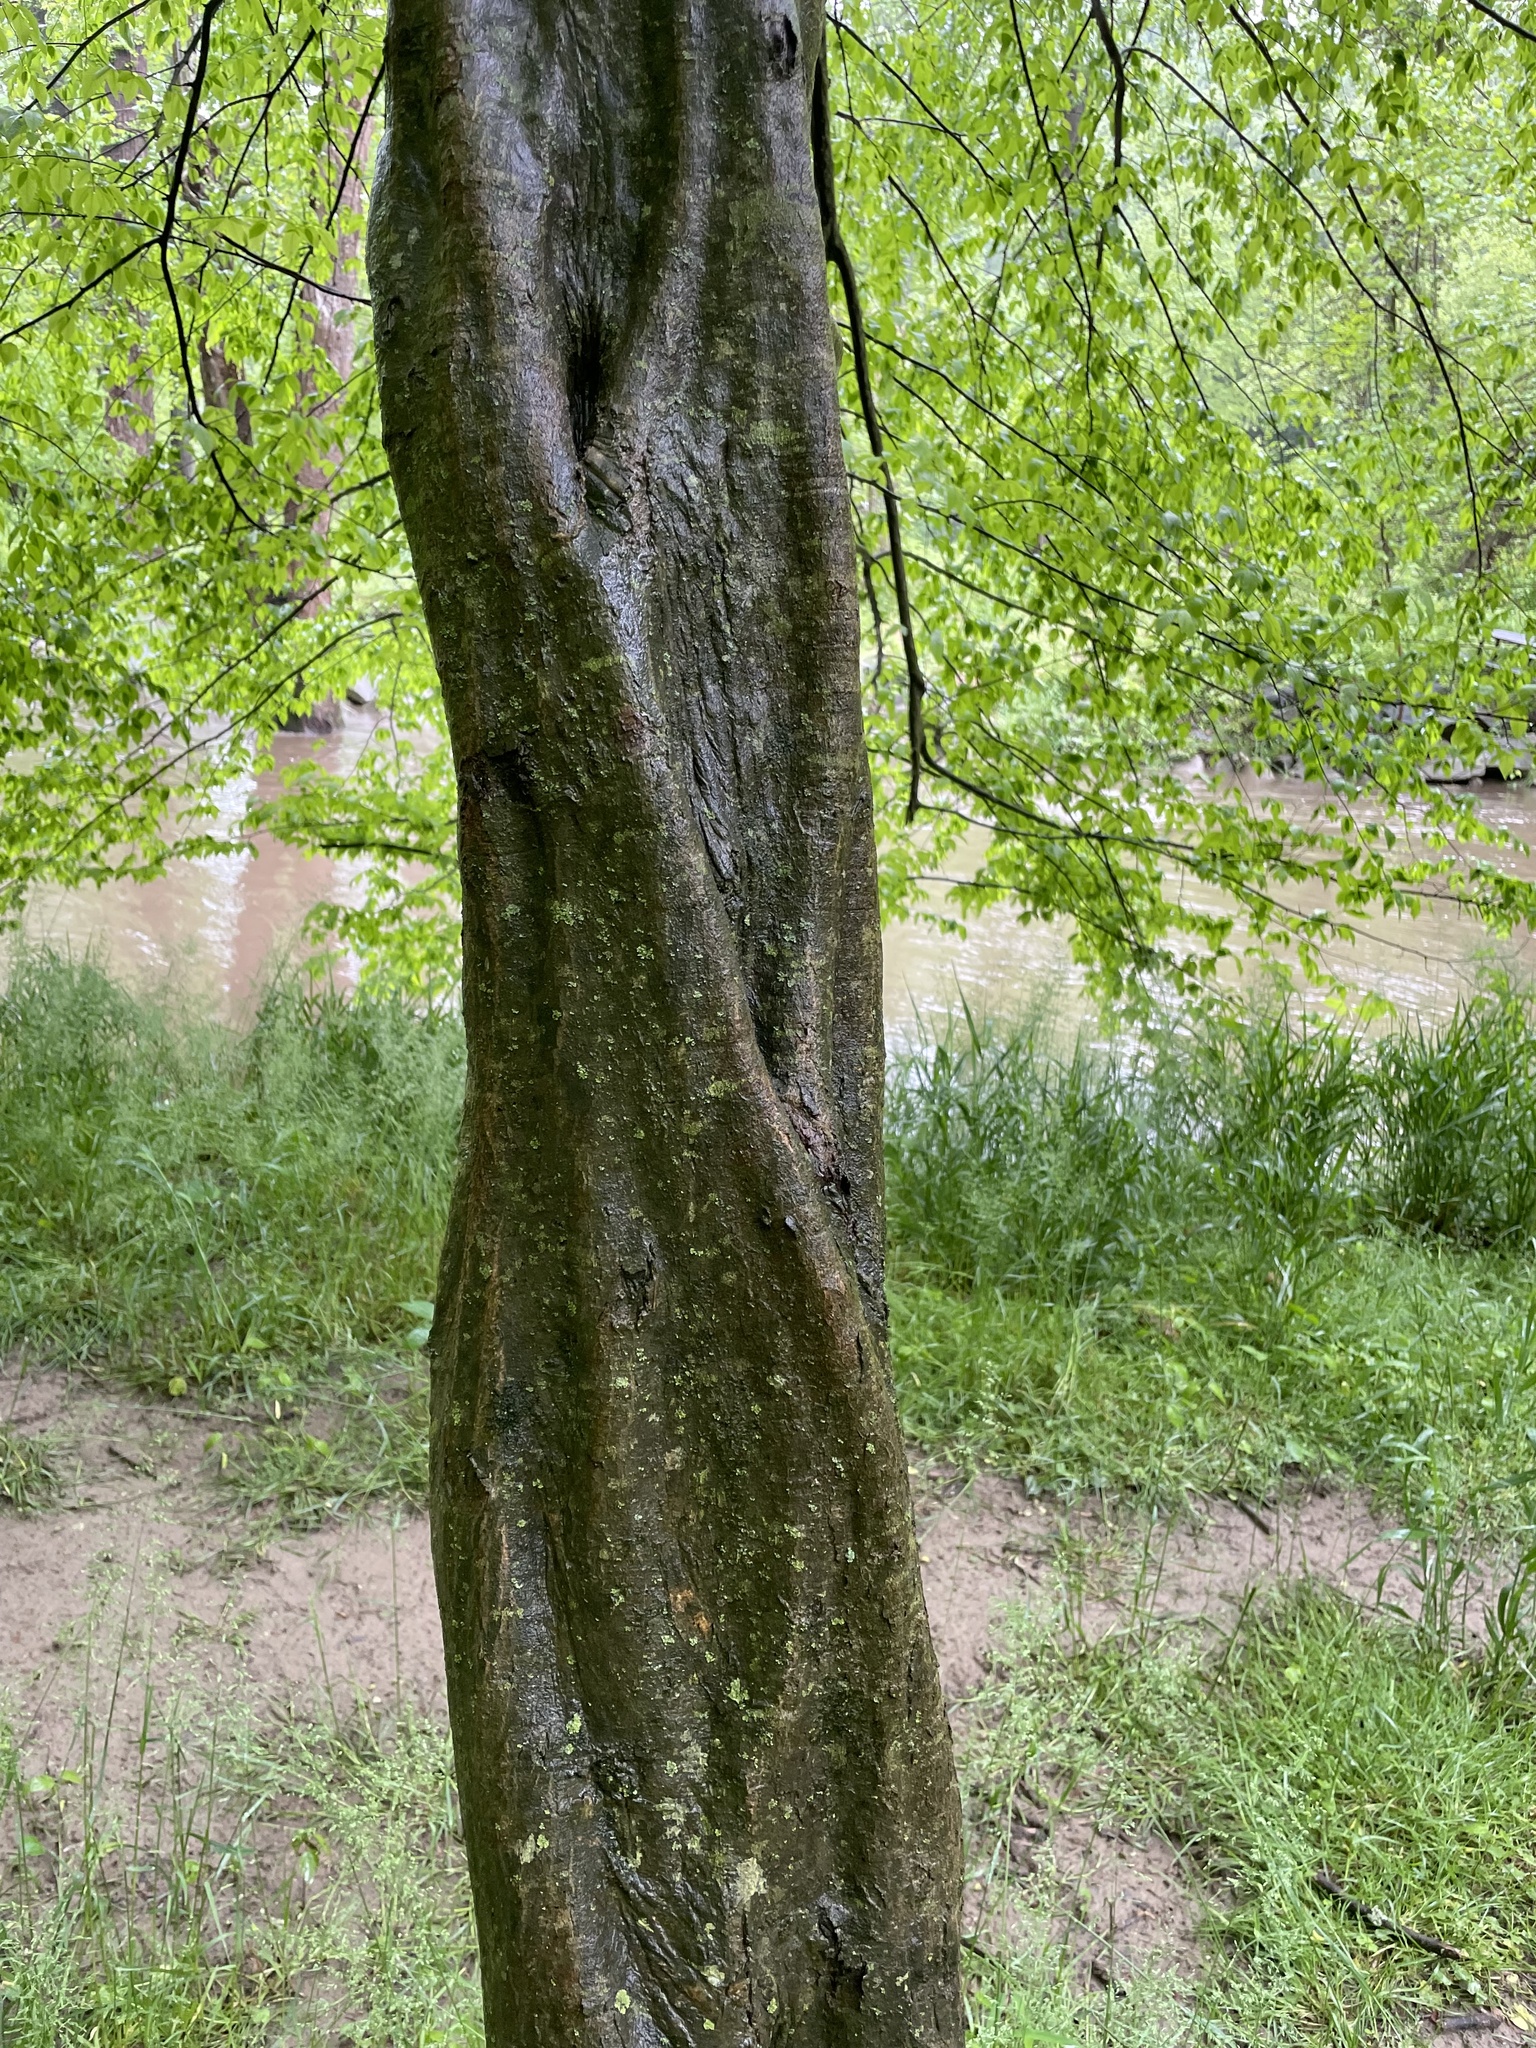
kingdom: Plantae
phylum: Tracheophyta
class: Magnoliopsida
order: Fagales
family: Betulaceae
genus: Carpinus
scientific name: Carpinus caroliniana
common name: American hornbeam
